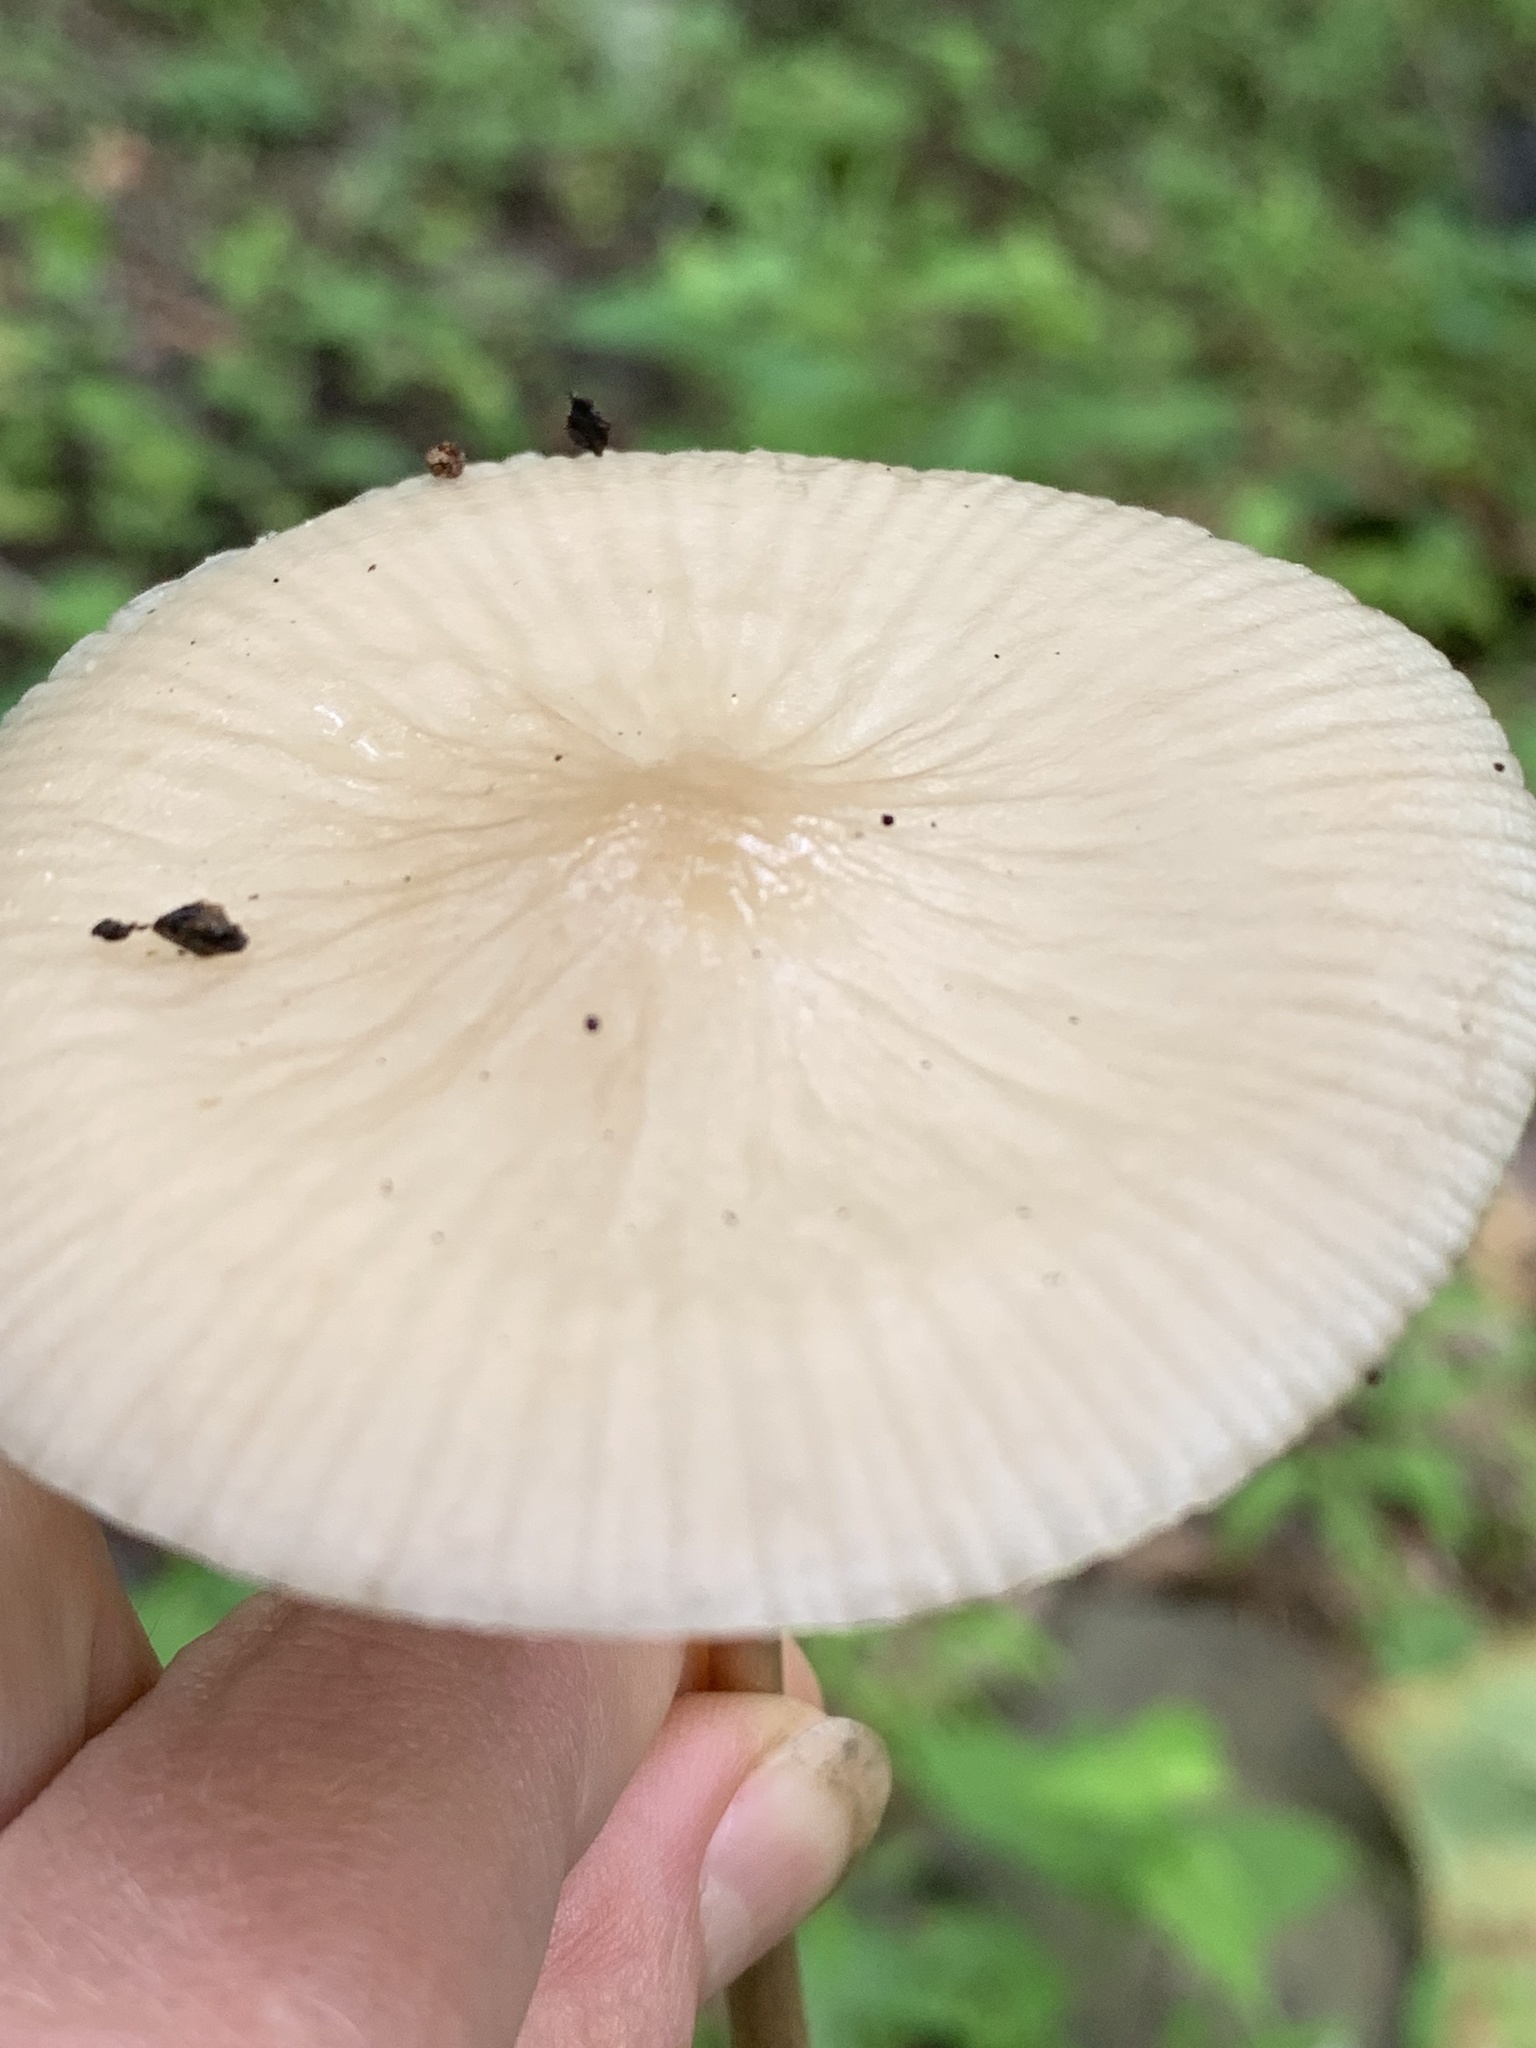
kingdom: Fungi
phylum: Basidiomycota
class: Agaricomycetes
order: Agaricales
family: Physalacriaceae
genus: Oudemansiella
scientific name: Oudemansiella
